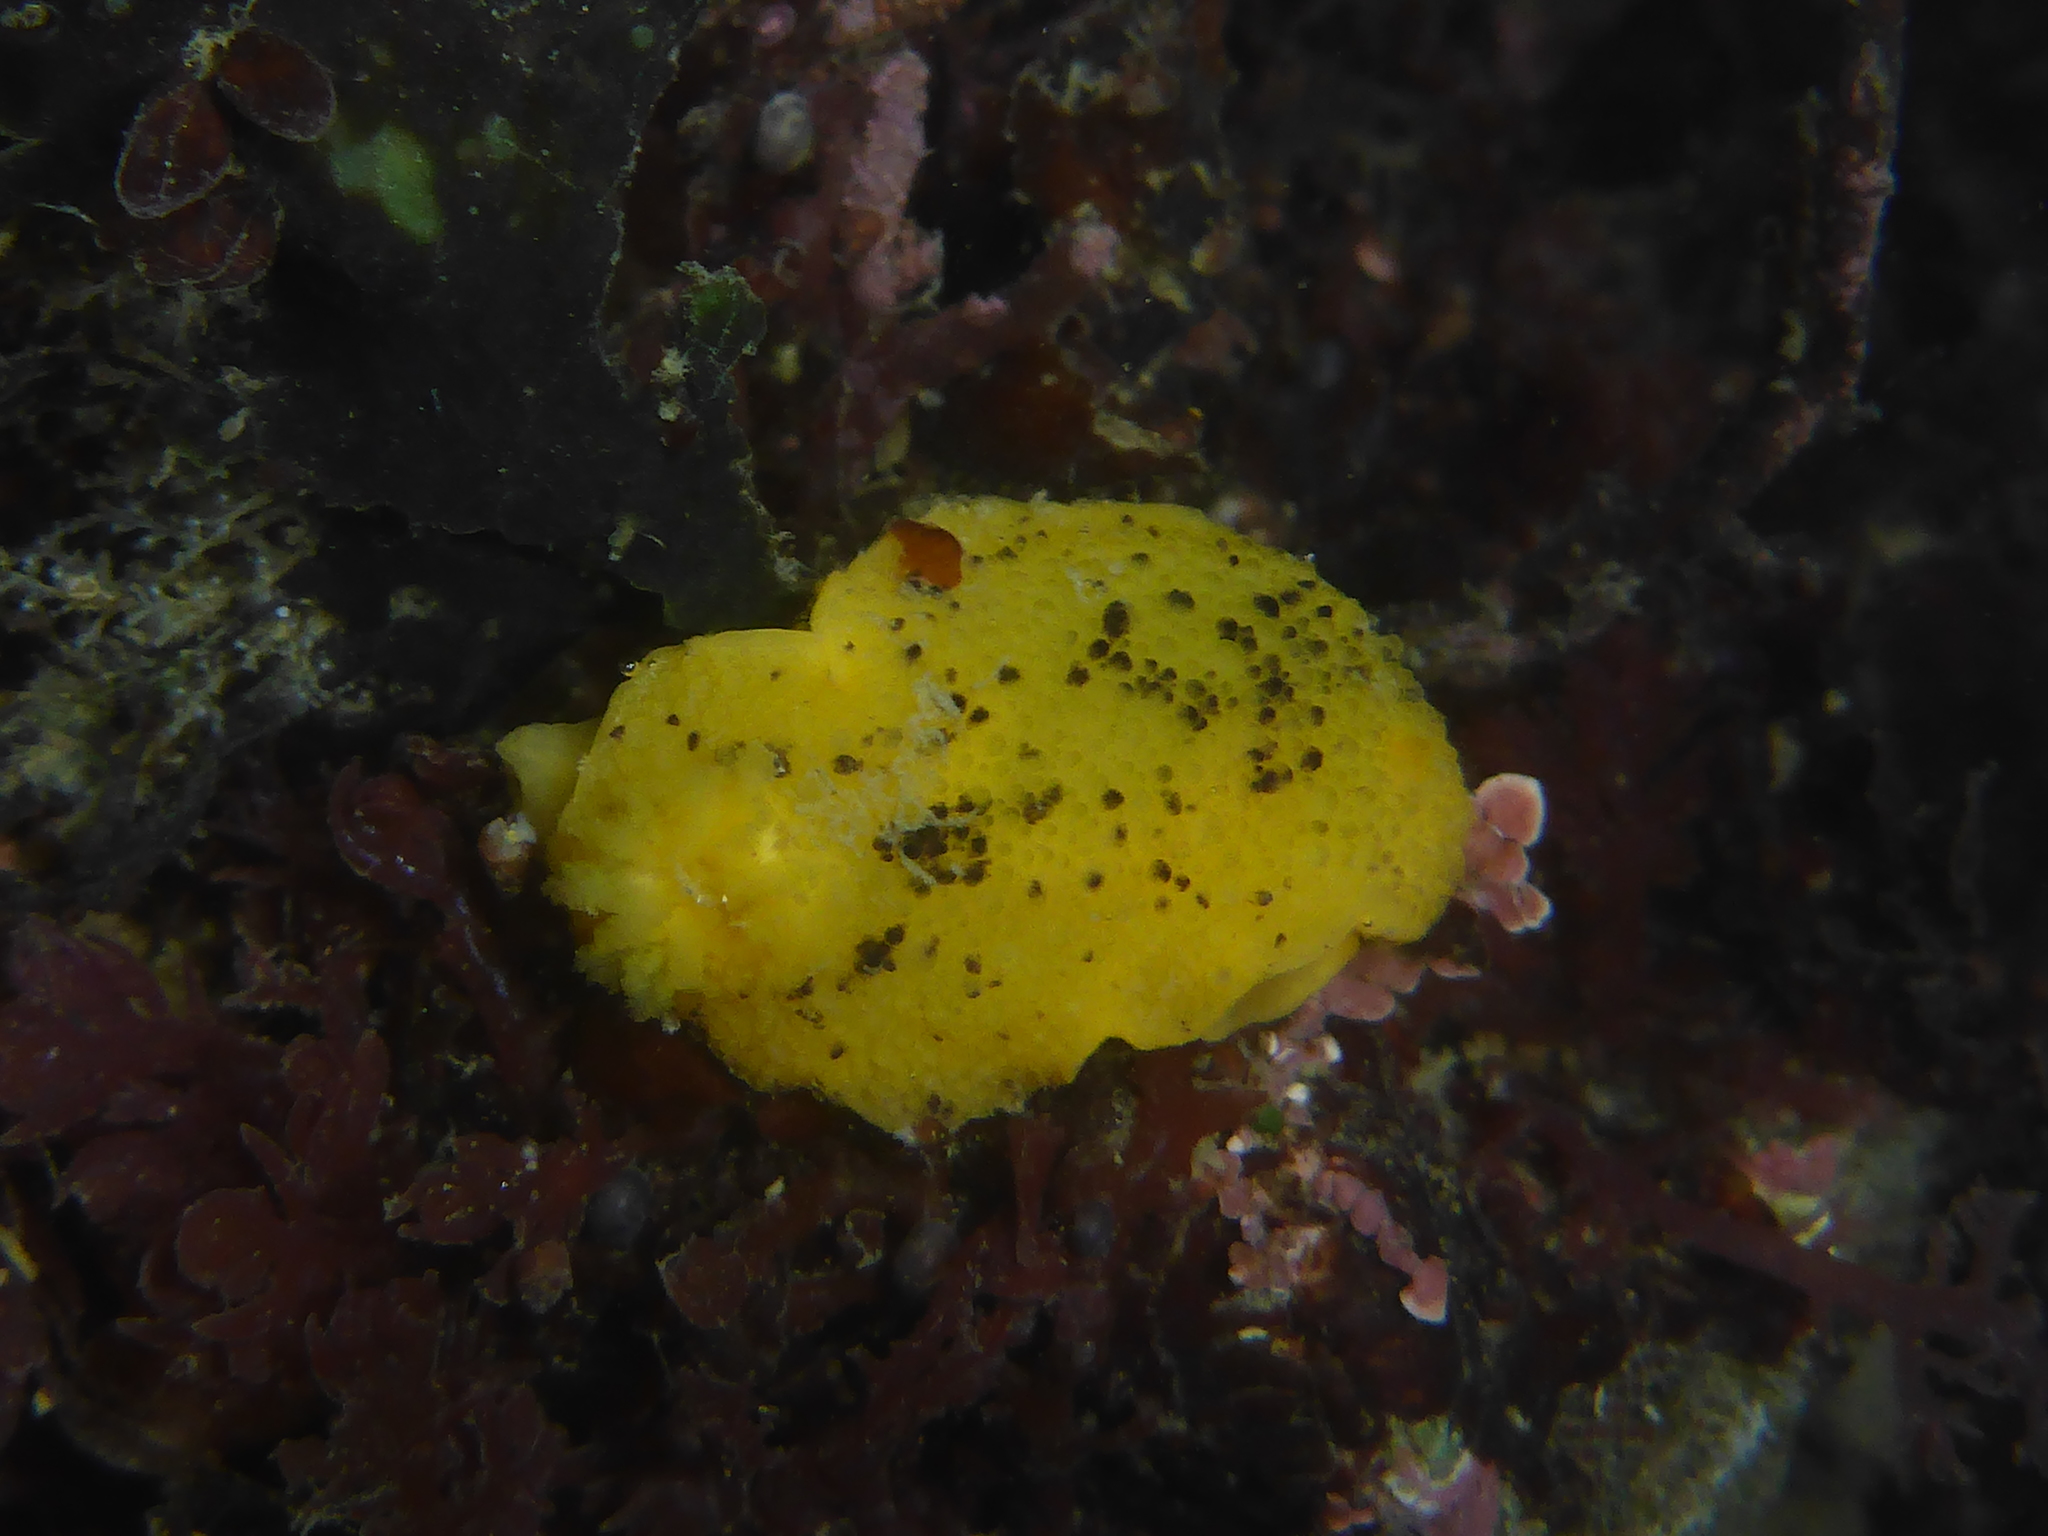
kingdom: Animalia
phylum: Mollusca
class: Gastropoda
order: Nudibranchia
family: Dorididae
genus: Doris
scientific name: Doris montereyensis
